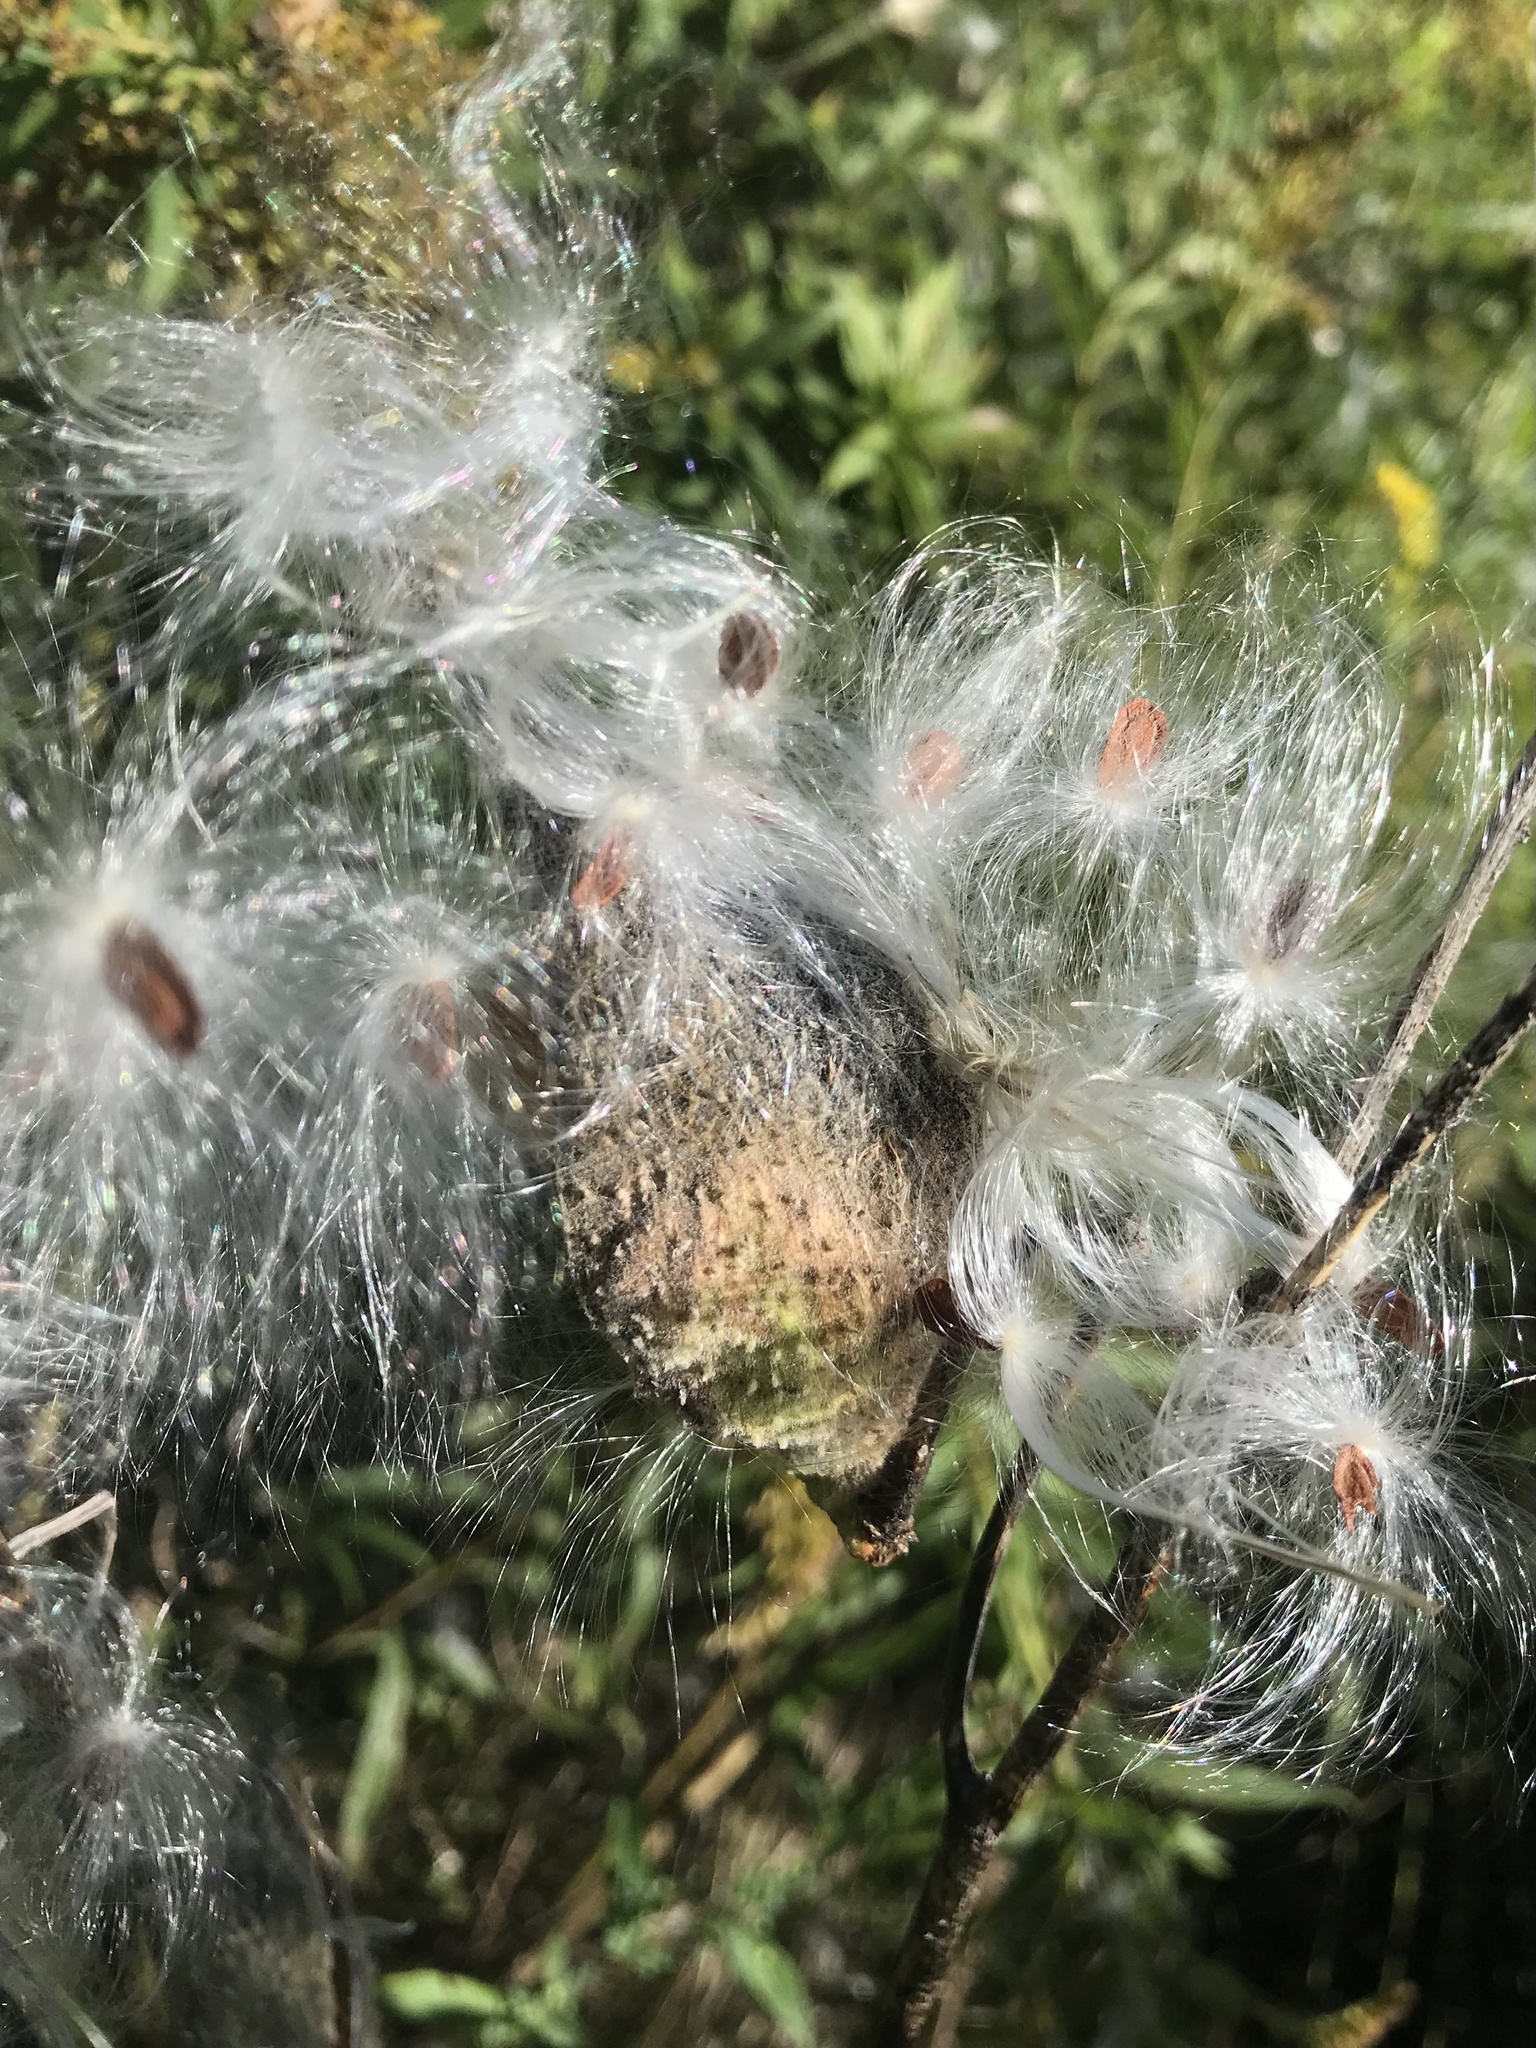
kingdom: Plantae
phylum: Tracheophyta
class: Magnoliopsida
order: Gentianales
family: Apocynaceae
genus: Asclepias
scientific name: Asclepias syriaca
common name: Common milkweed
